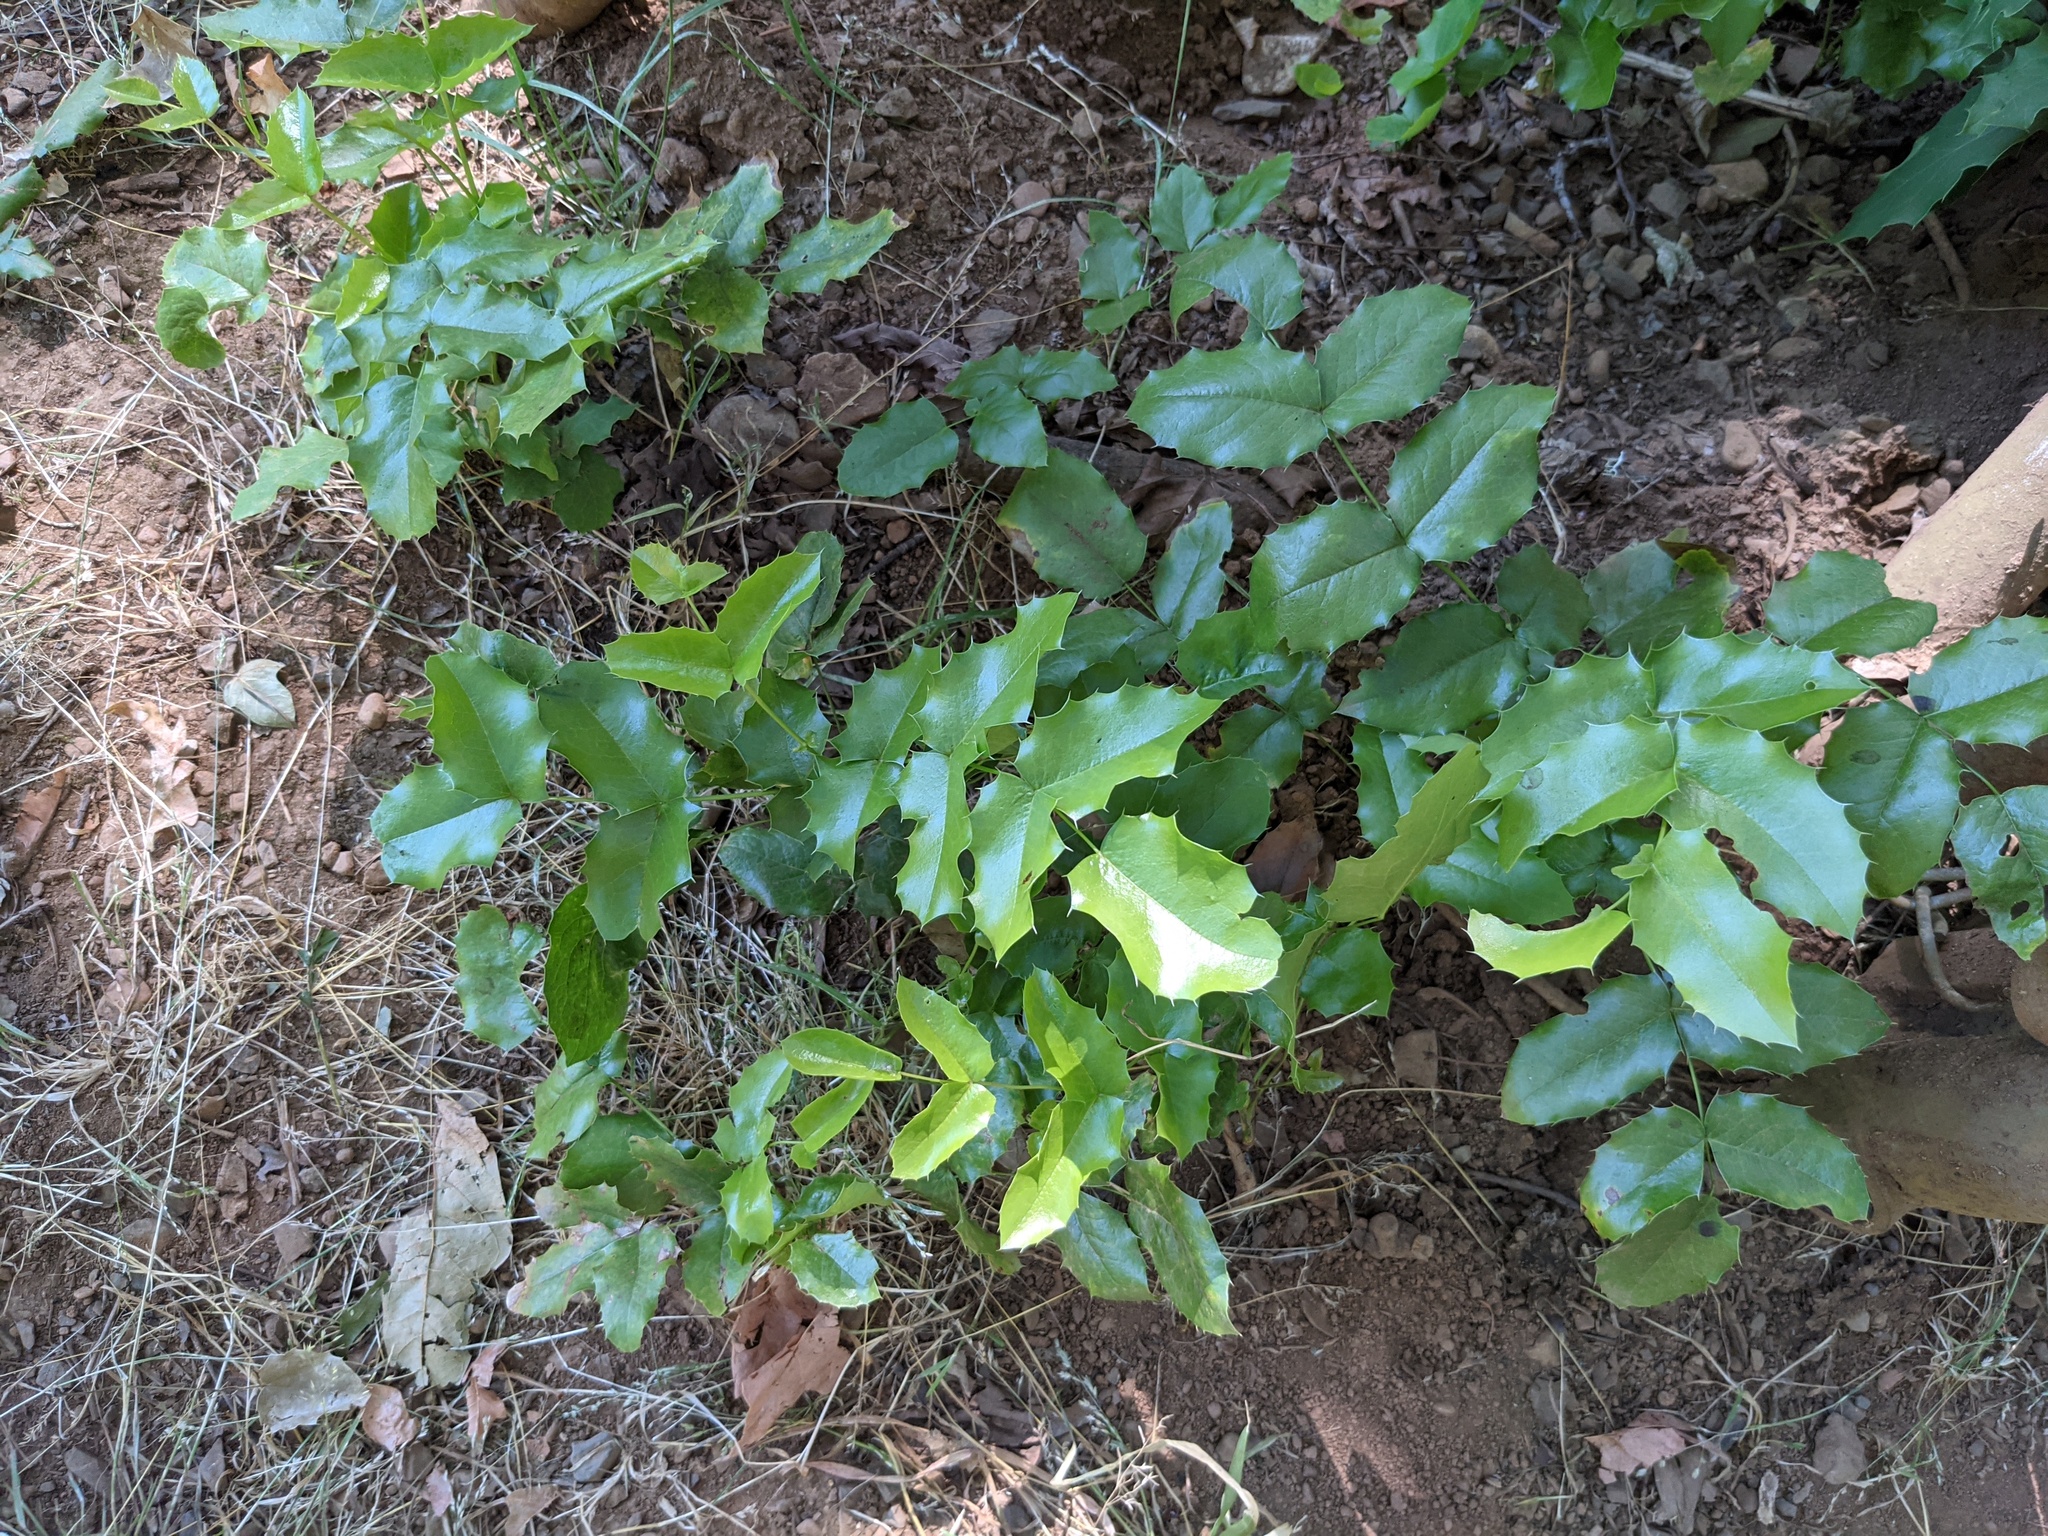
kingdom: Plantae
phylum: Tracheophyta
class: Magnoliopsida
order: Ranunculales
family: Berberidaceae
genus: Mahonia
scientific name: Mahonia aquifolium
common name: Oregon-grape
